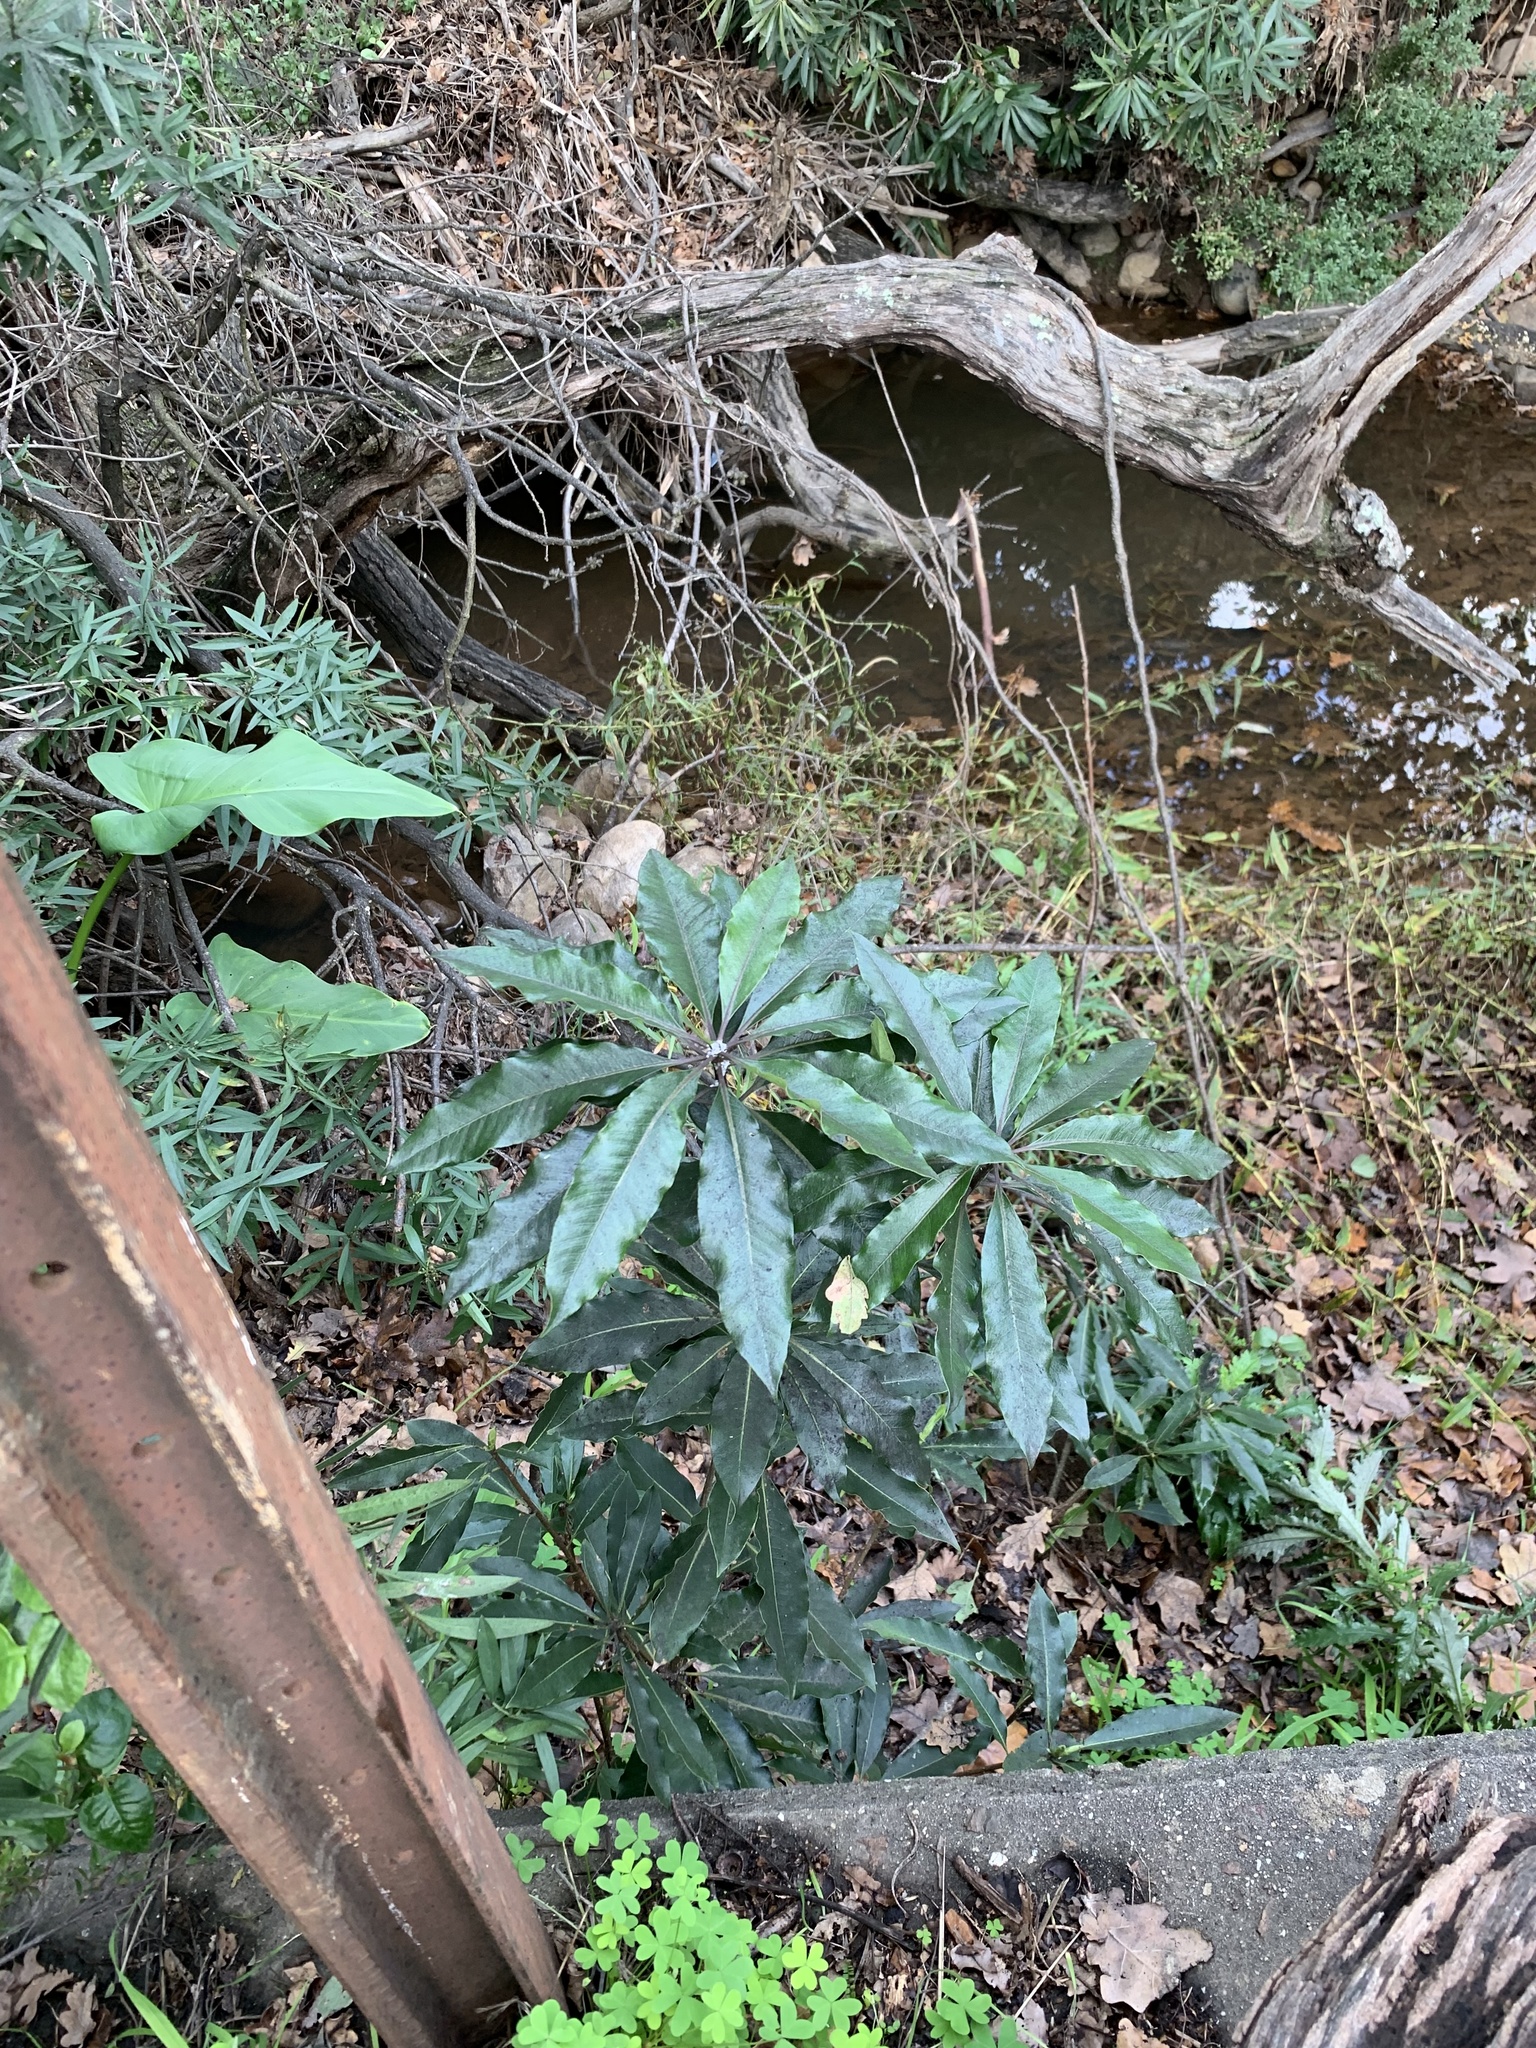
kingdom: Plantae
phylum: Tracheophyta
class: Magnoliopsida
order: Apiales
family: Pittosporaceae
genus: Pittosporum
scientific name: Pittosporum undulatum
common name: Australian cheesewood
